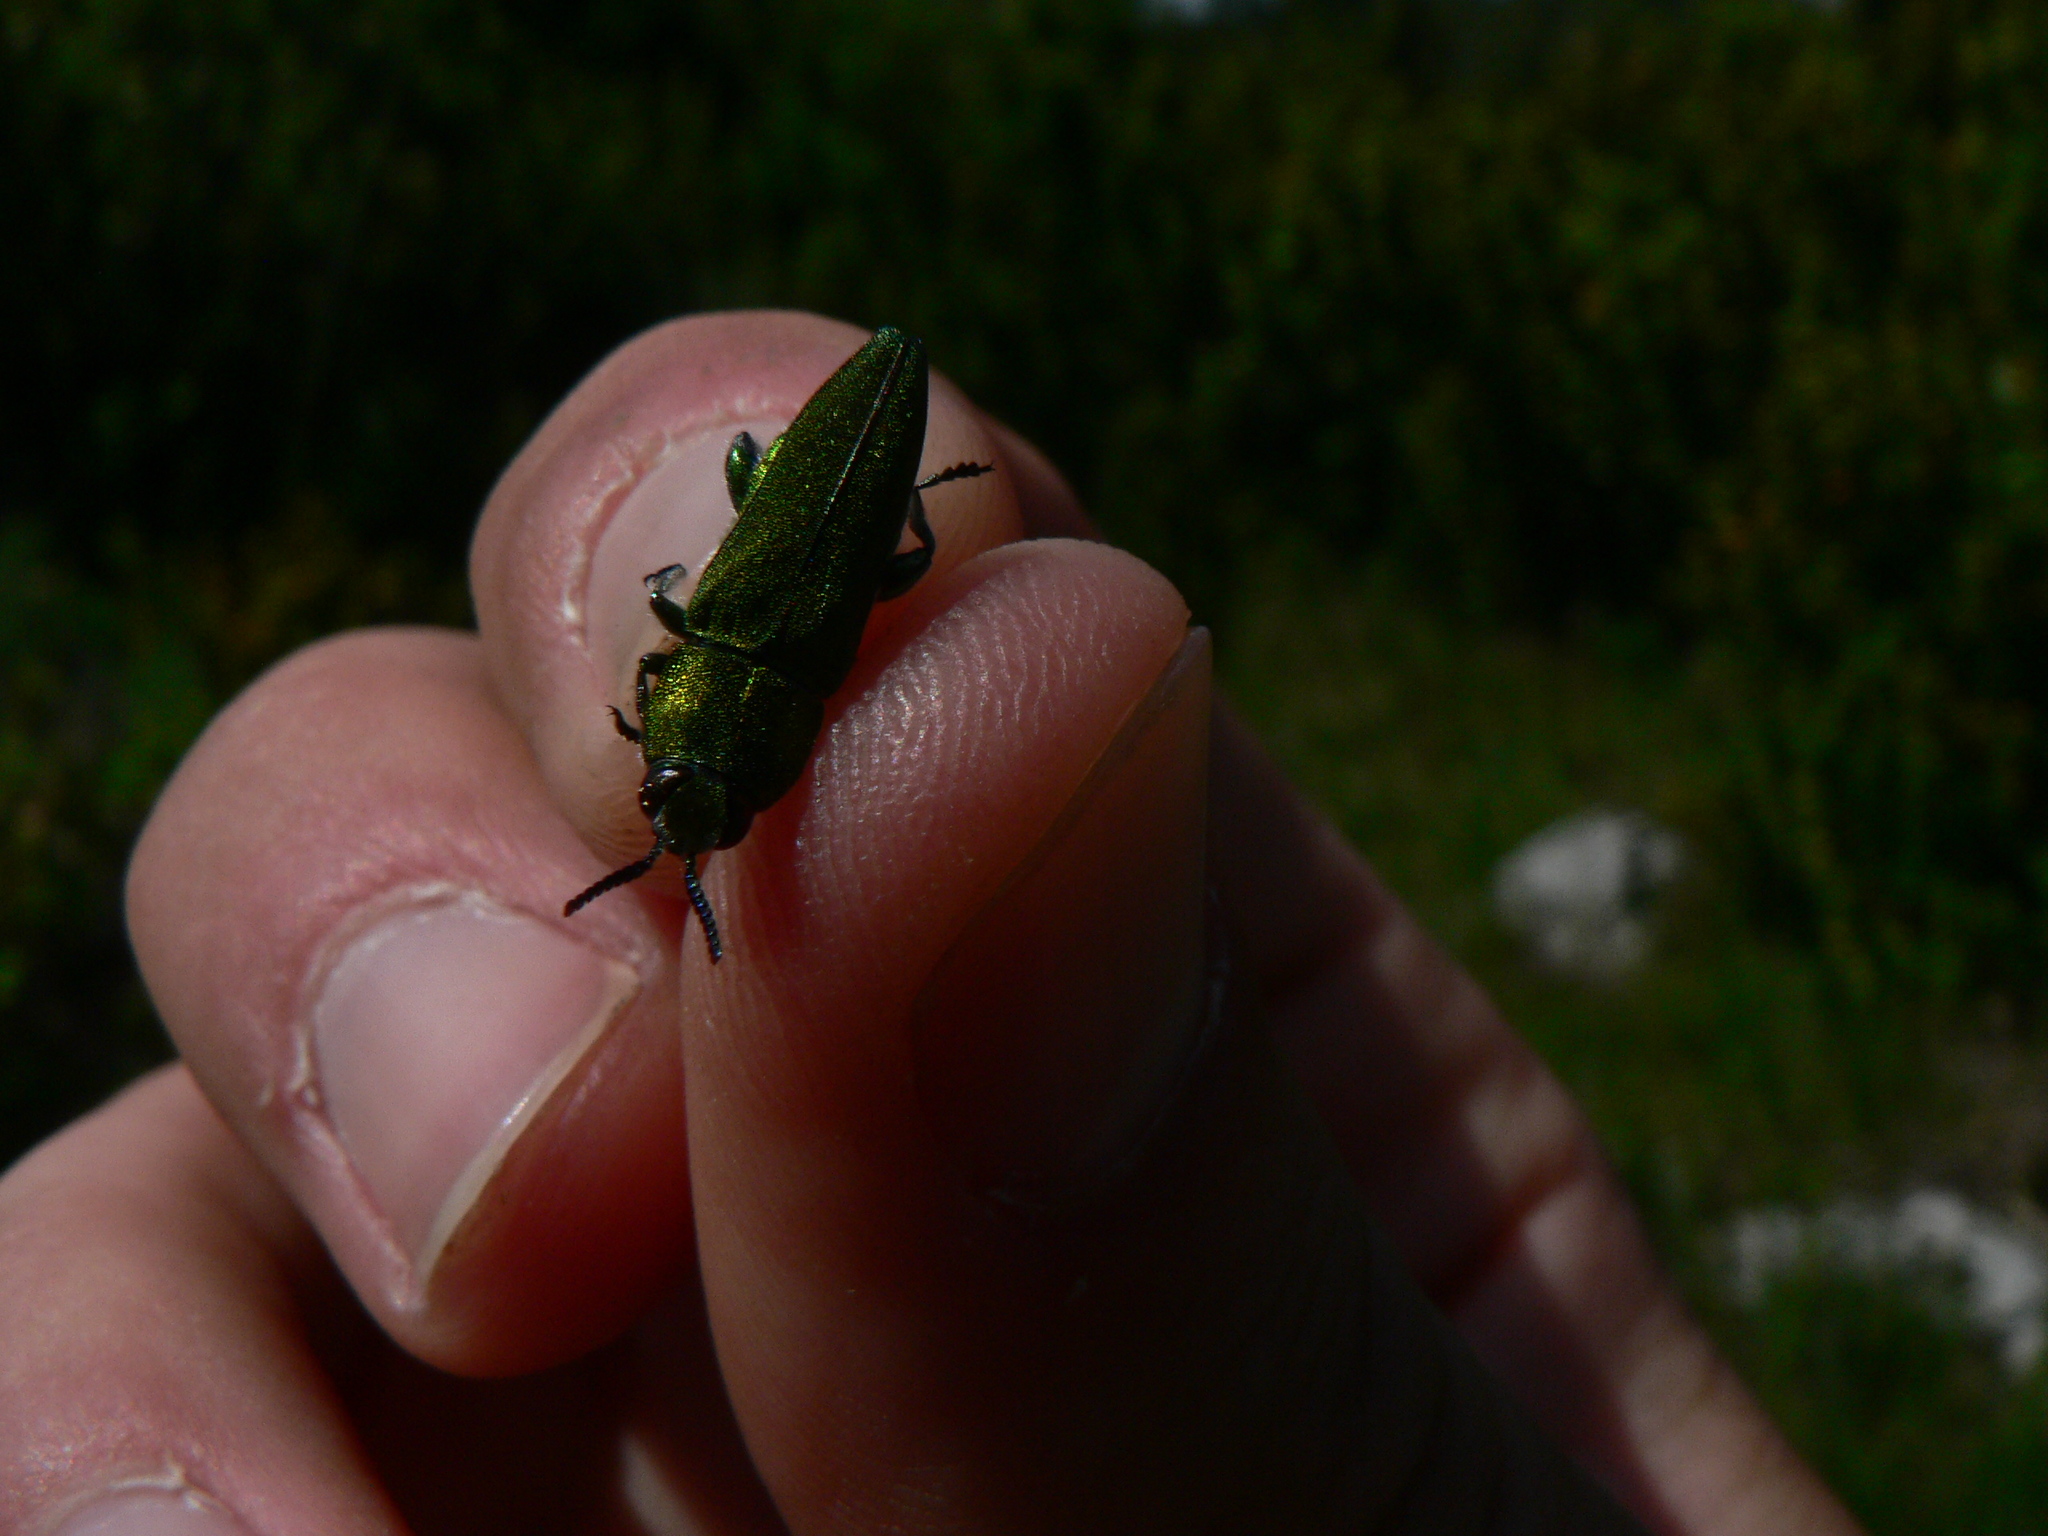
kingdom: Animalia
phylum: Arthropoda
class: Insecta
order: Coleoptera
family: Buprestidae
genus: Anthaxia
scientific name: Anthaxia hungarica
